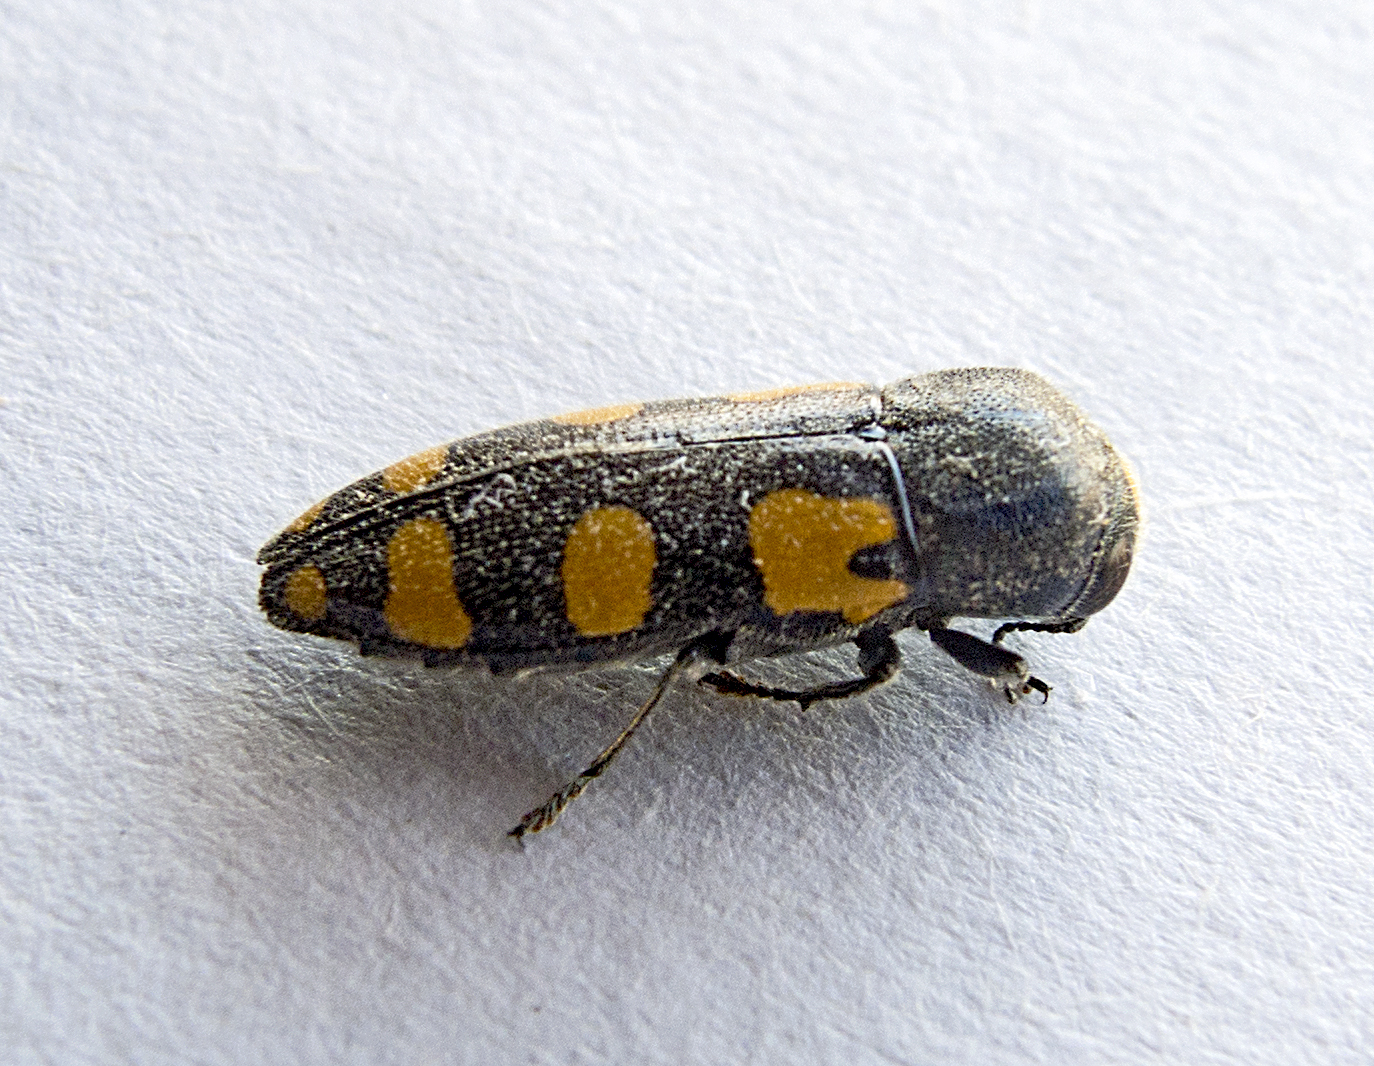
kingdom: Animalia
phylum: Arthropoda
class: Insecta
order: Coleoptera
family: Buprestidae
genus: Ptosima
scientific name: Ptosima undecimmaculata
